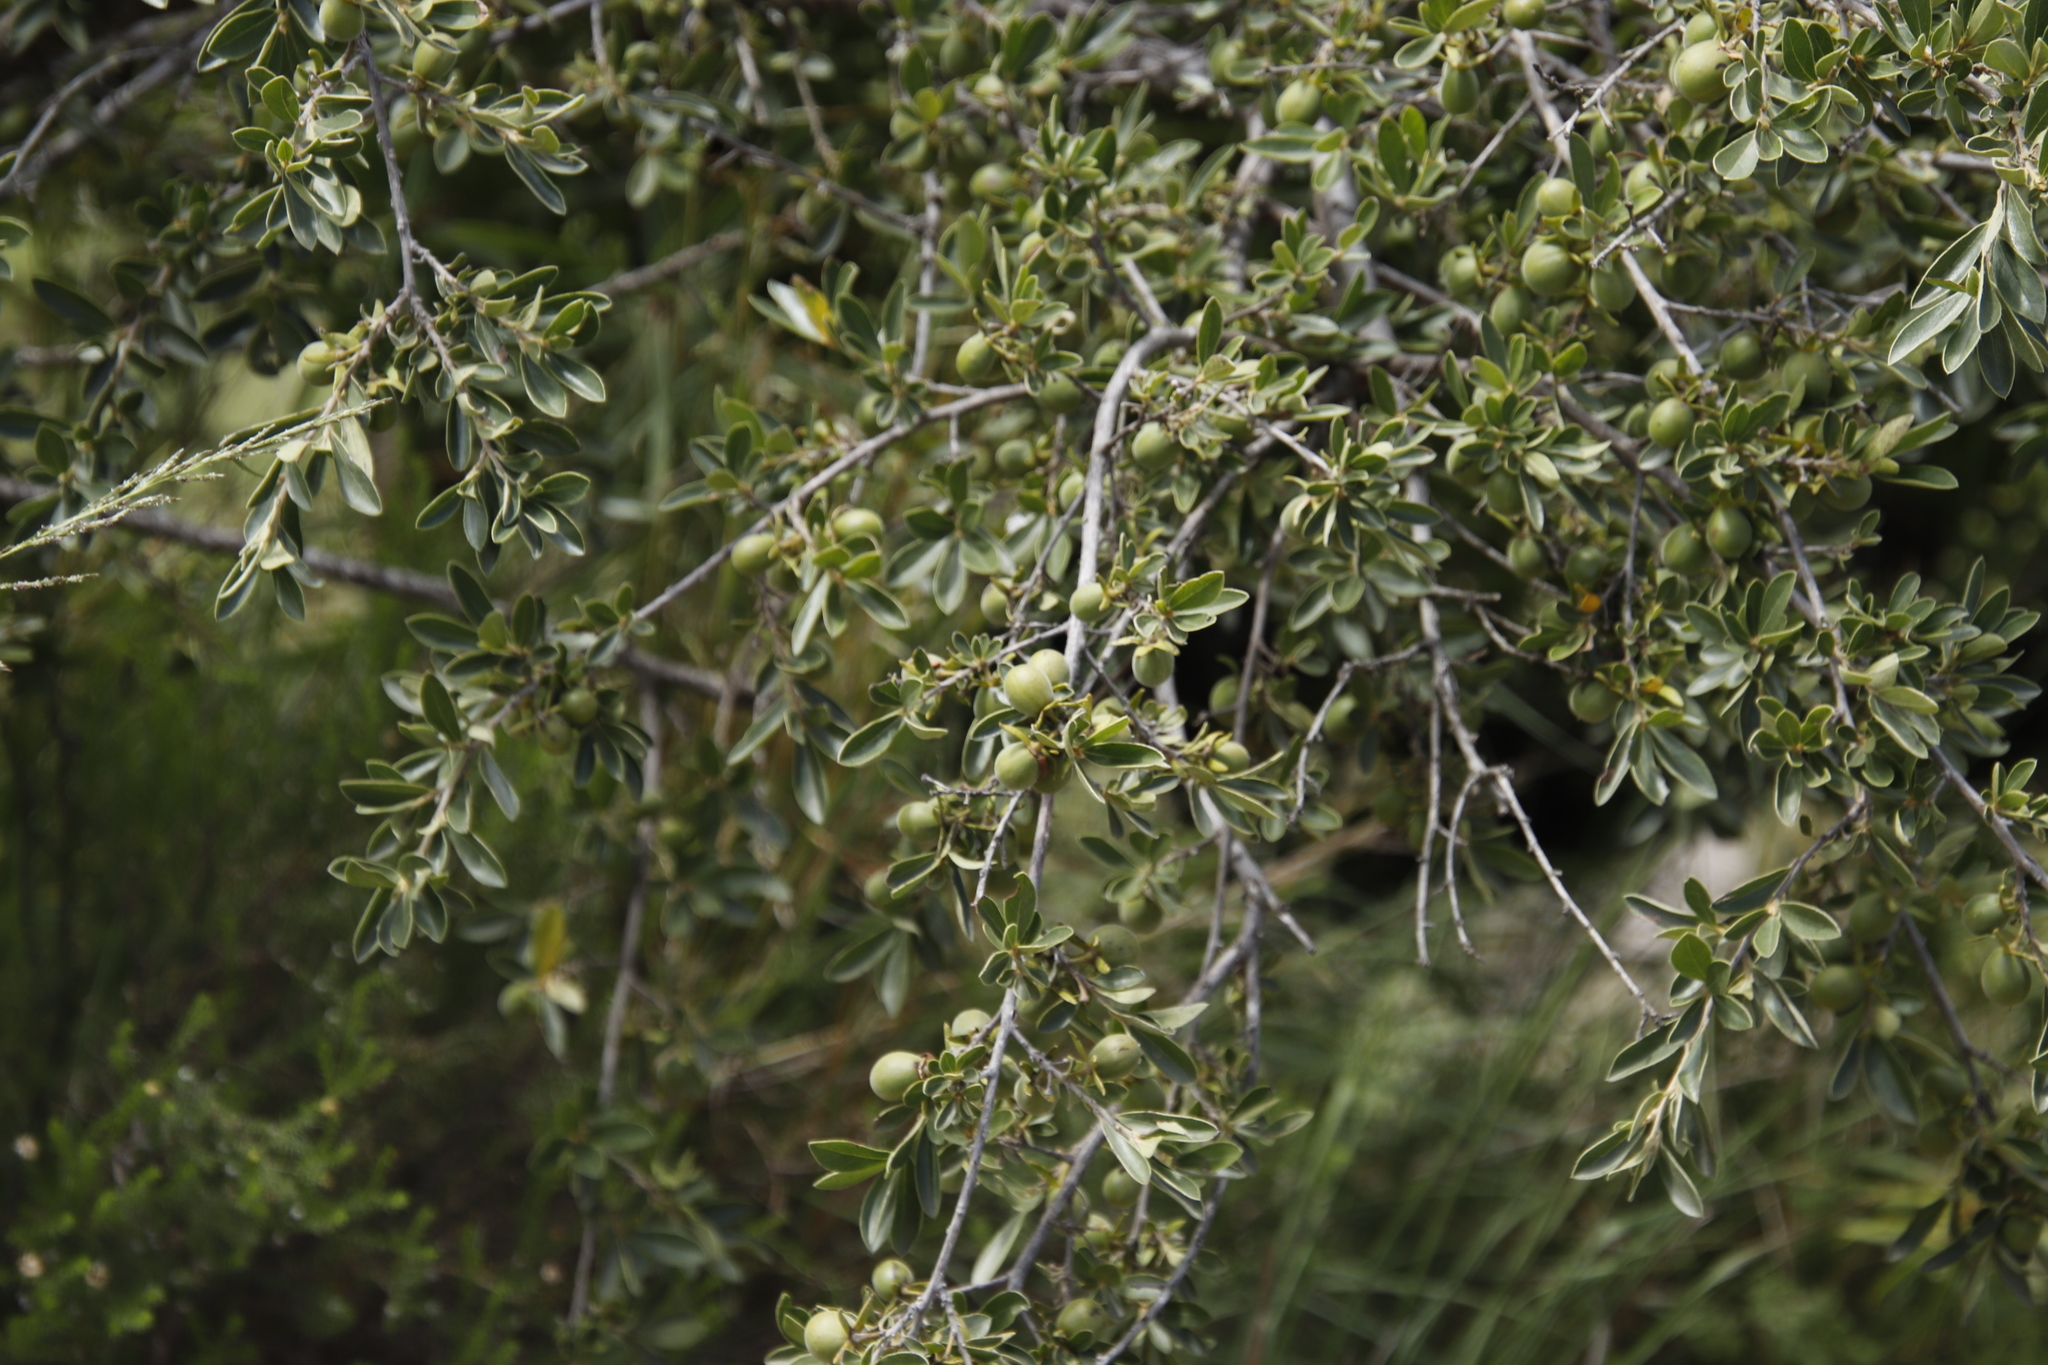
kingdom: Plantae
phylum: Tracheophyta
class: Magnoliopsida
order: Ericales
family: Ebenaceae
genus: Diospyros
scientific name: Diospyros lycioides
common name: Red star apple
